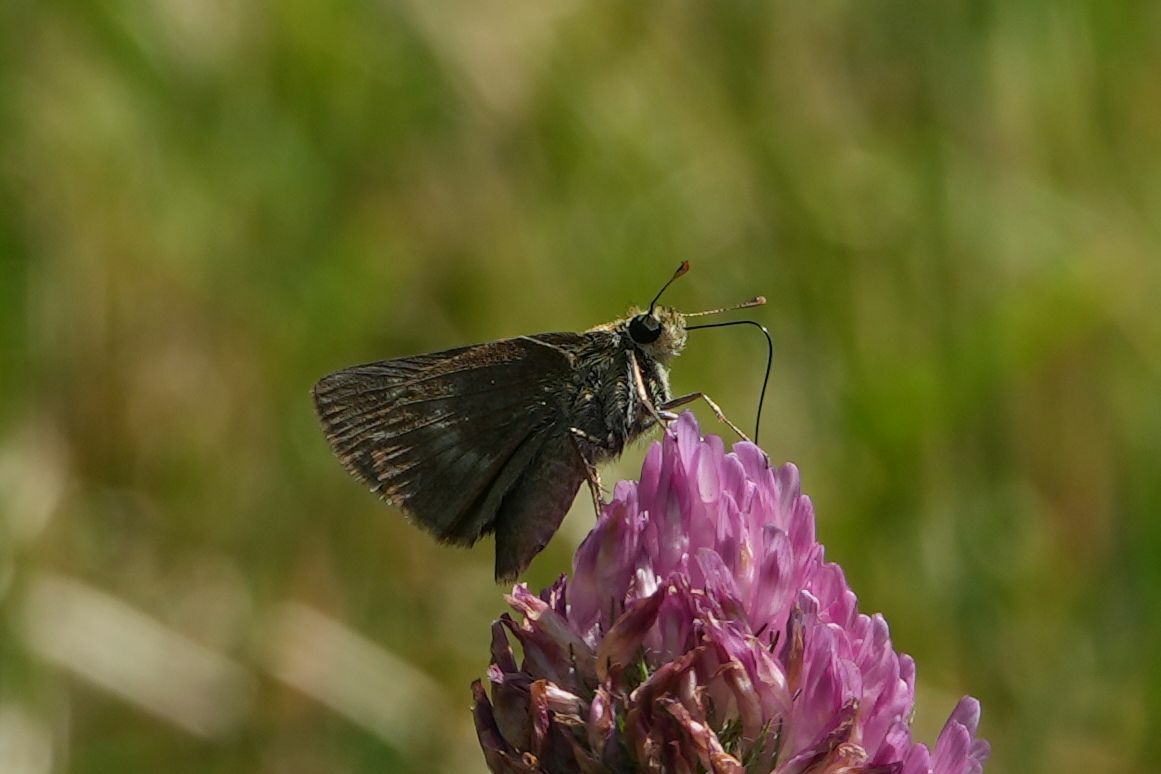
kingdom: Animalia
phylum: Arthropoda
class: Insecta
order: Lepidoptera
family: Hesperiidae
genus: Polites
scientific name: Polites egeremet
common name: Northern broken-dash
